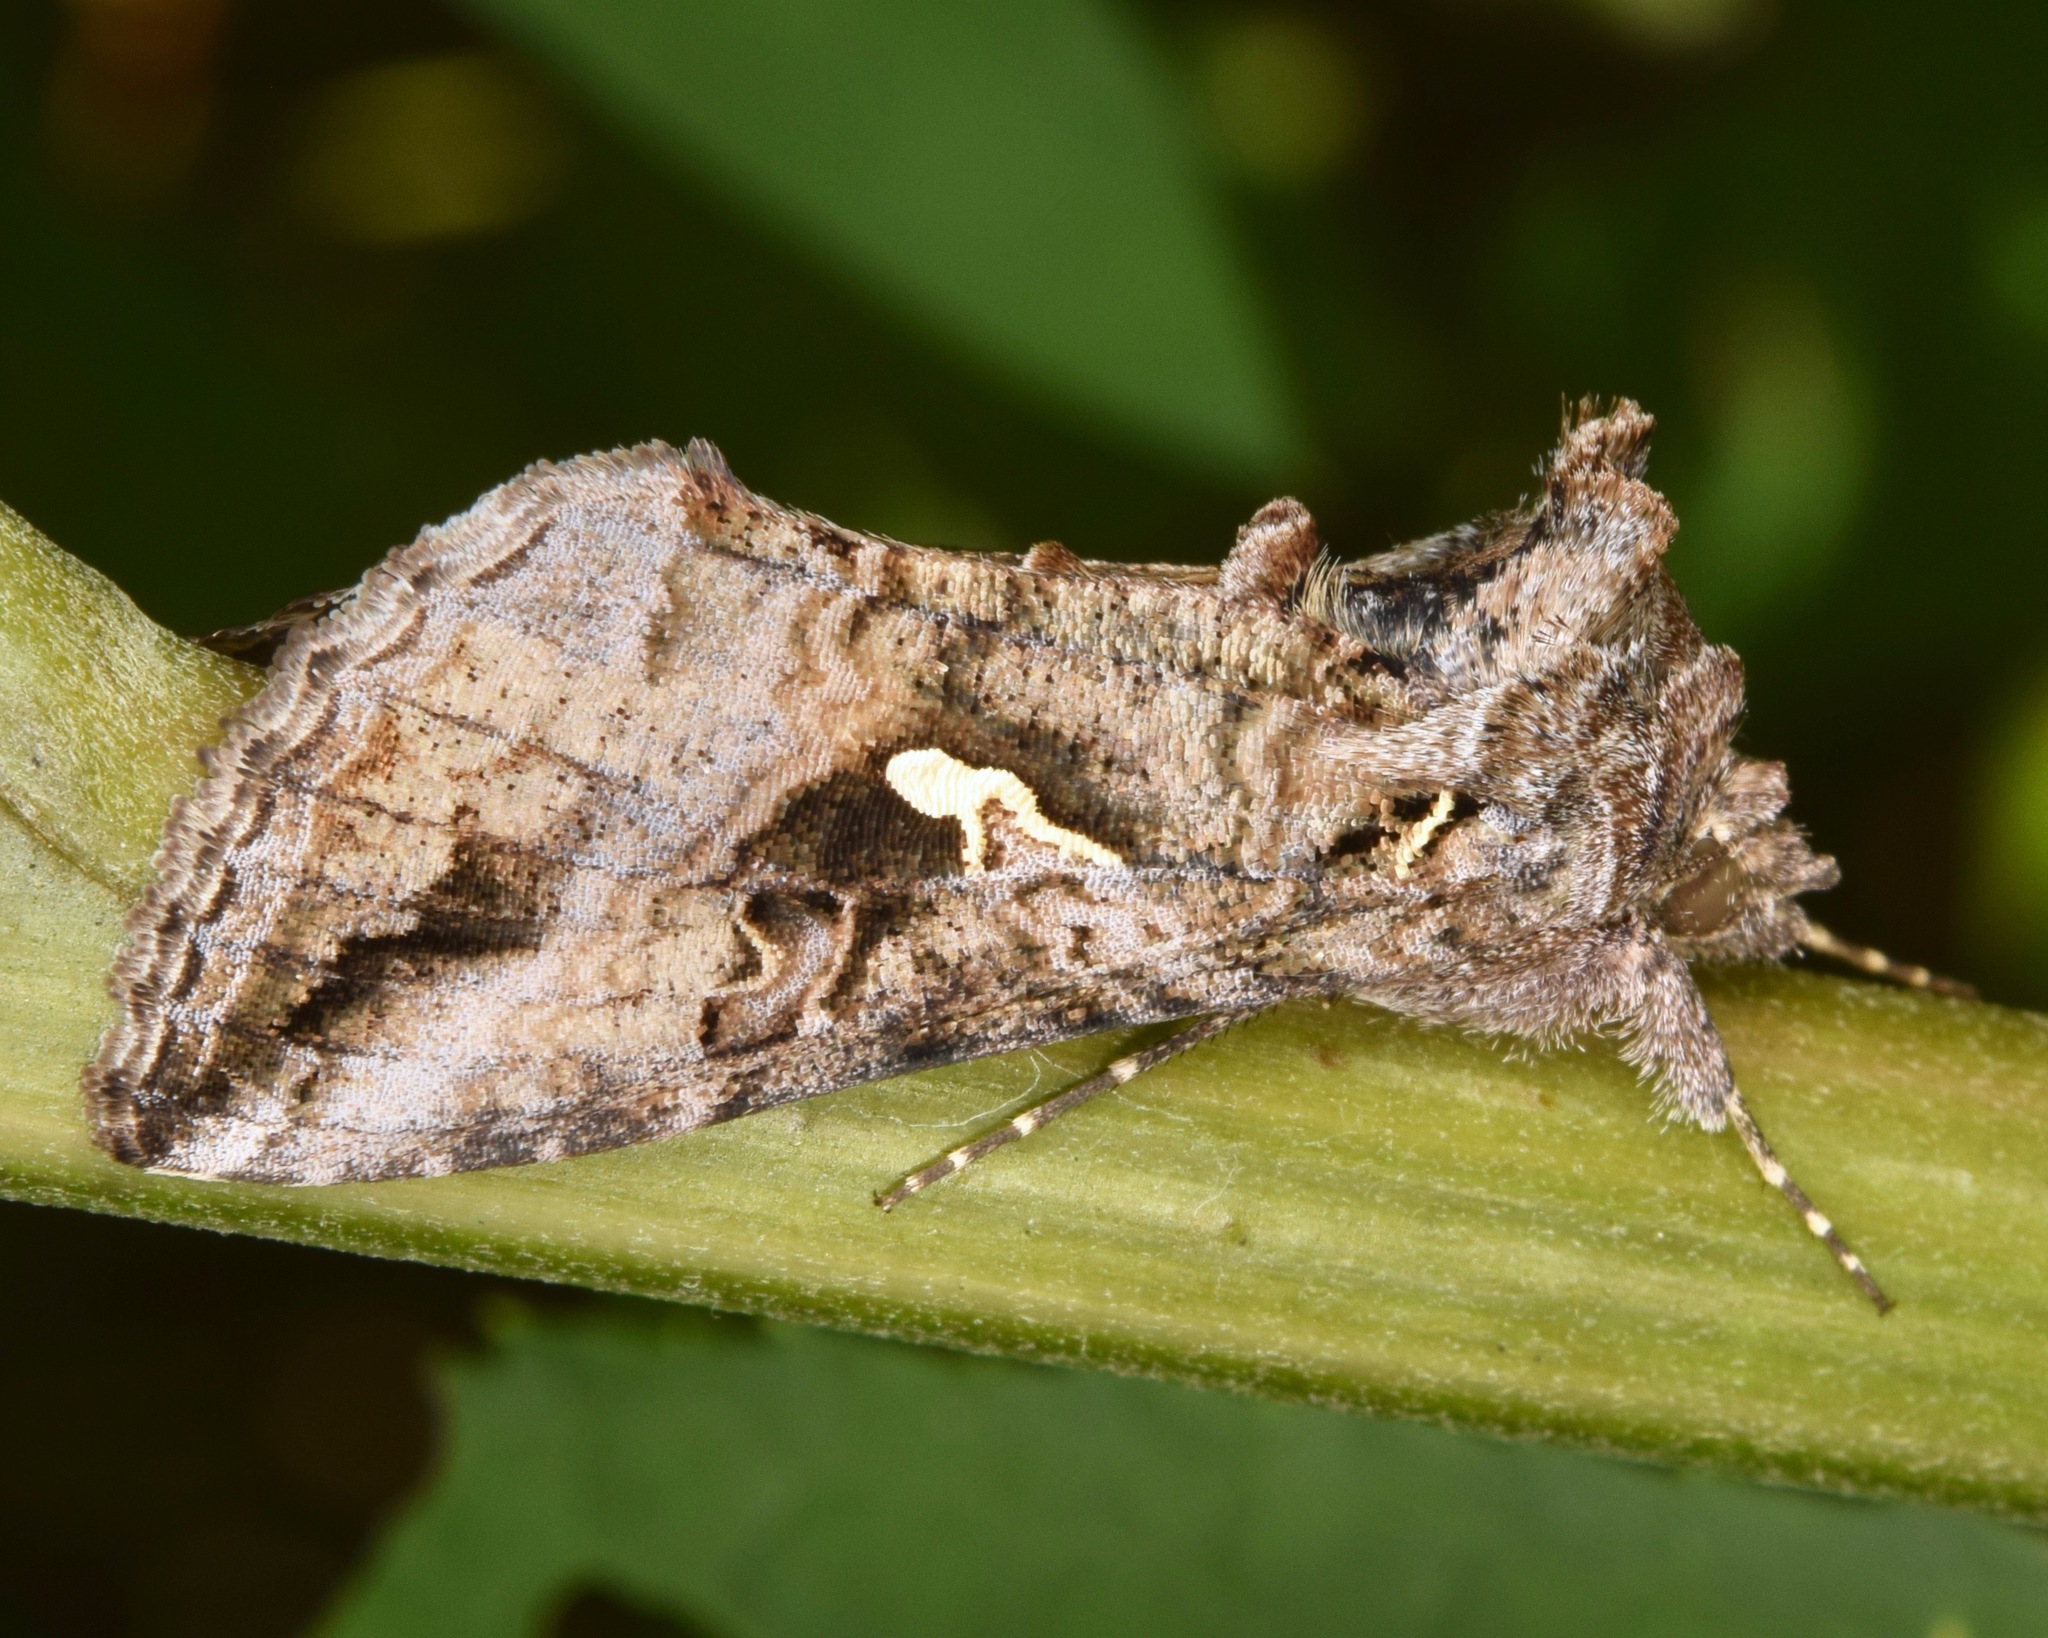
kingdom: Animalia
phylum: Arthropoda
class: Insecta
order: Lepidoptera
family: Noctuidae
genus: Rachiplusia
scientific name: Rachiplusia ou
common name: Gray looper moth
